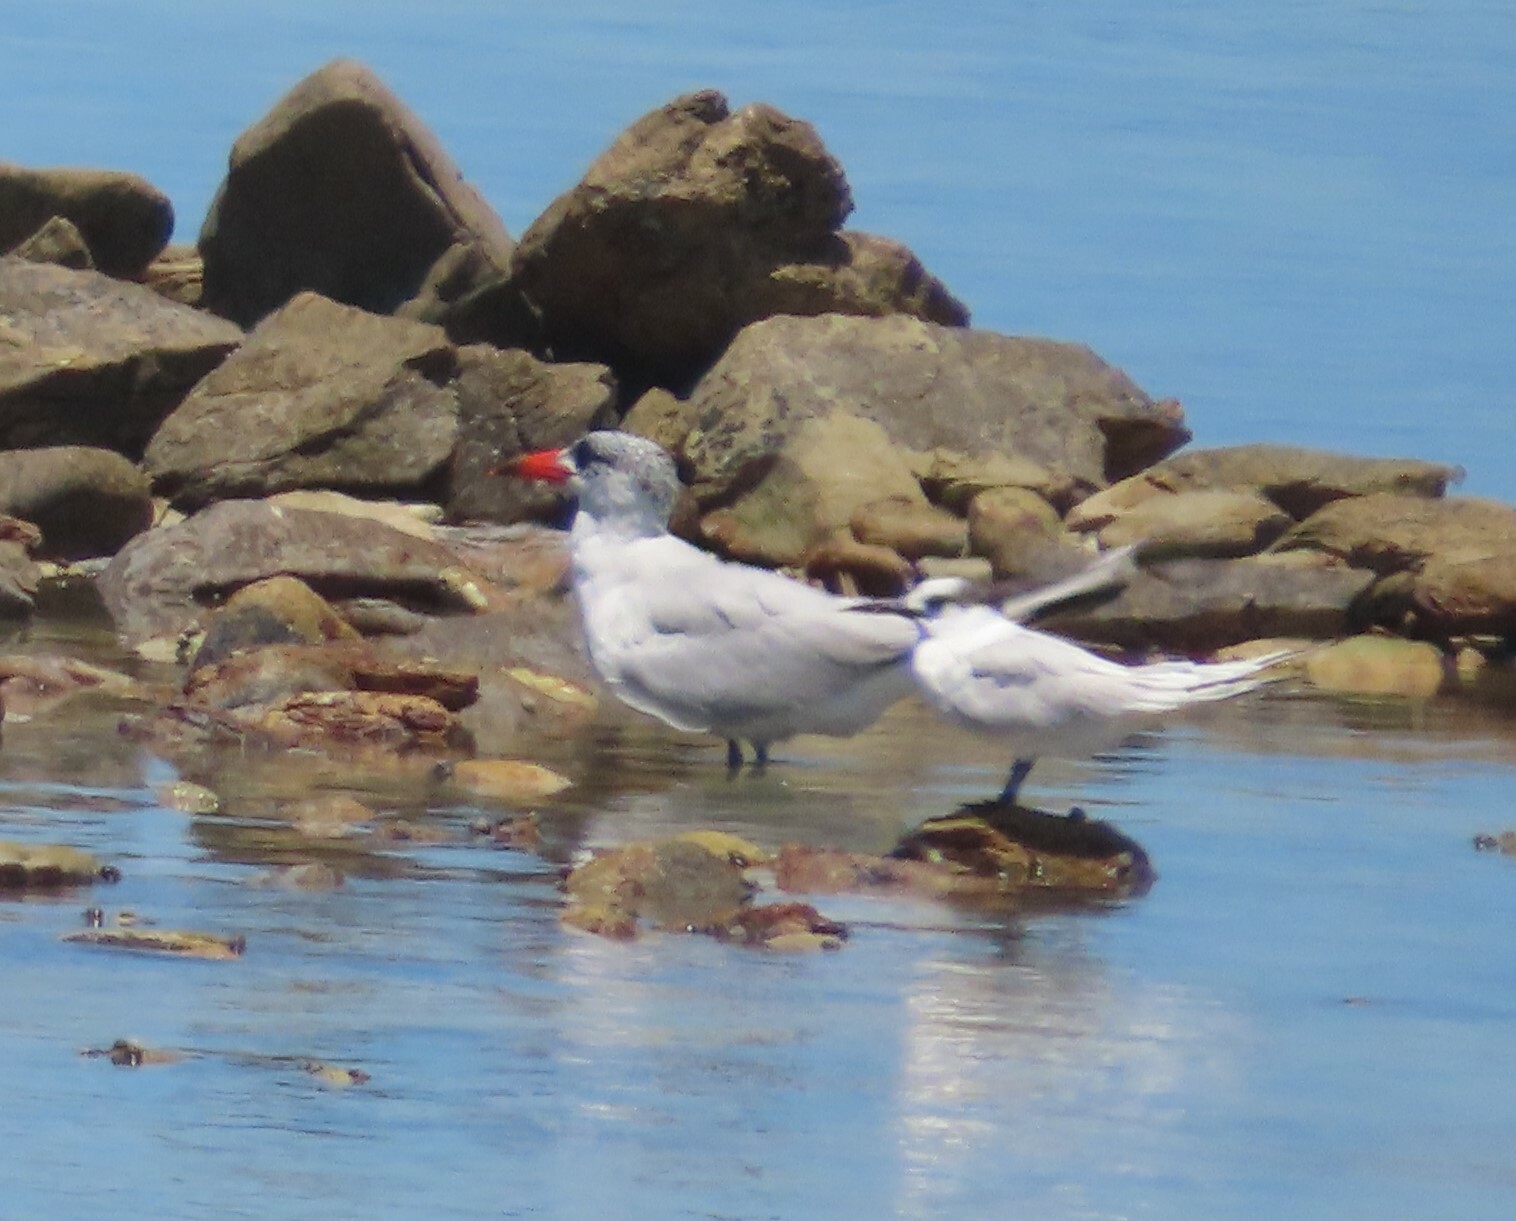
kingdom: Animalia
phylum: Chordata
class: Aves
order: Charadriiformes
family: Laridae
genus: Thalasseus
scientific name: Thalasseus sandvicensis
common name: Sandwich tern
